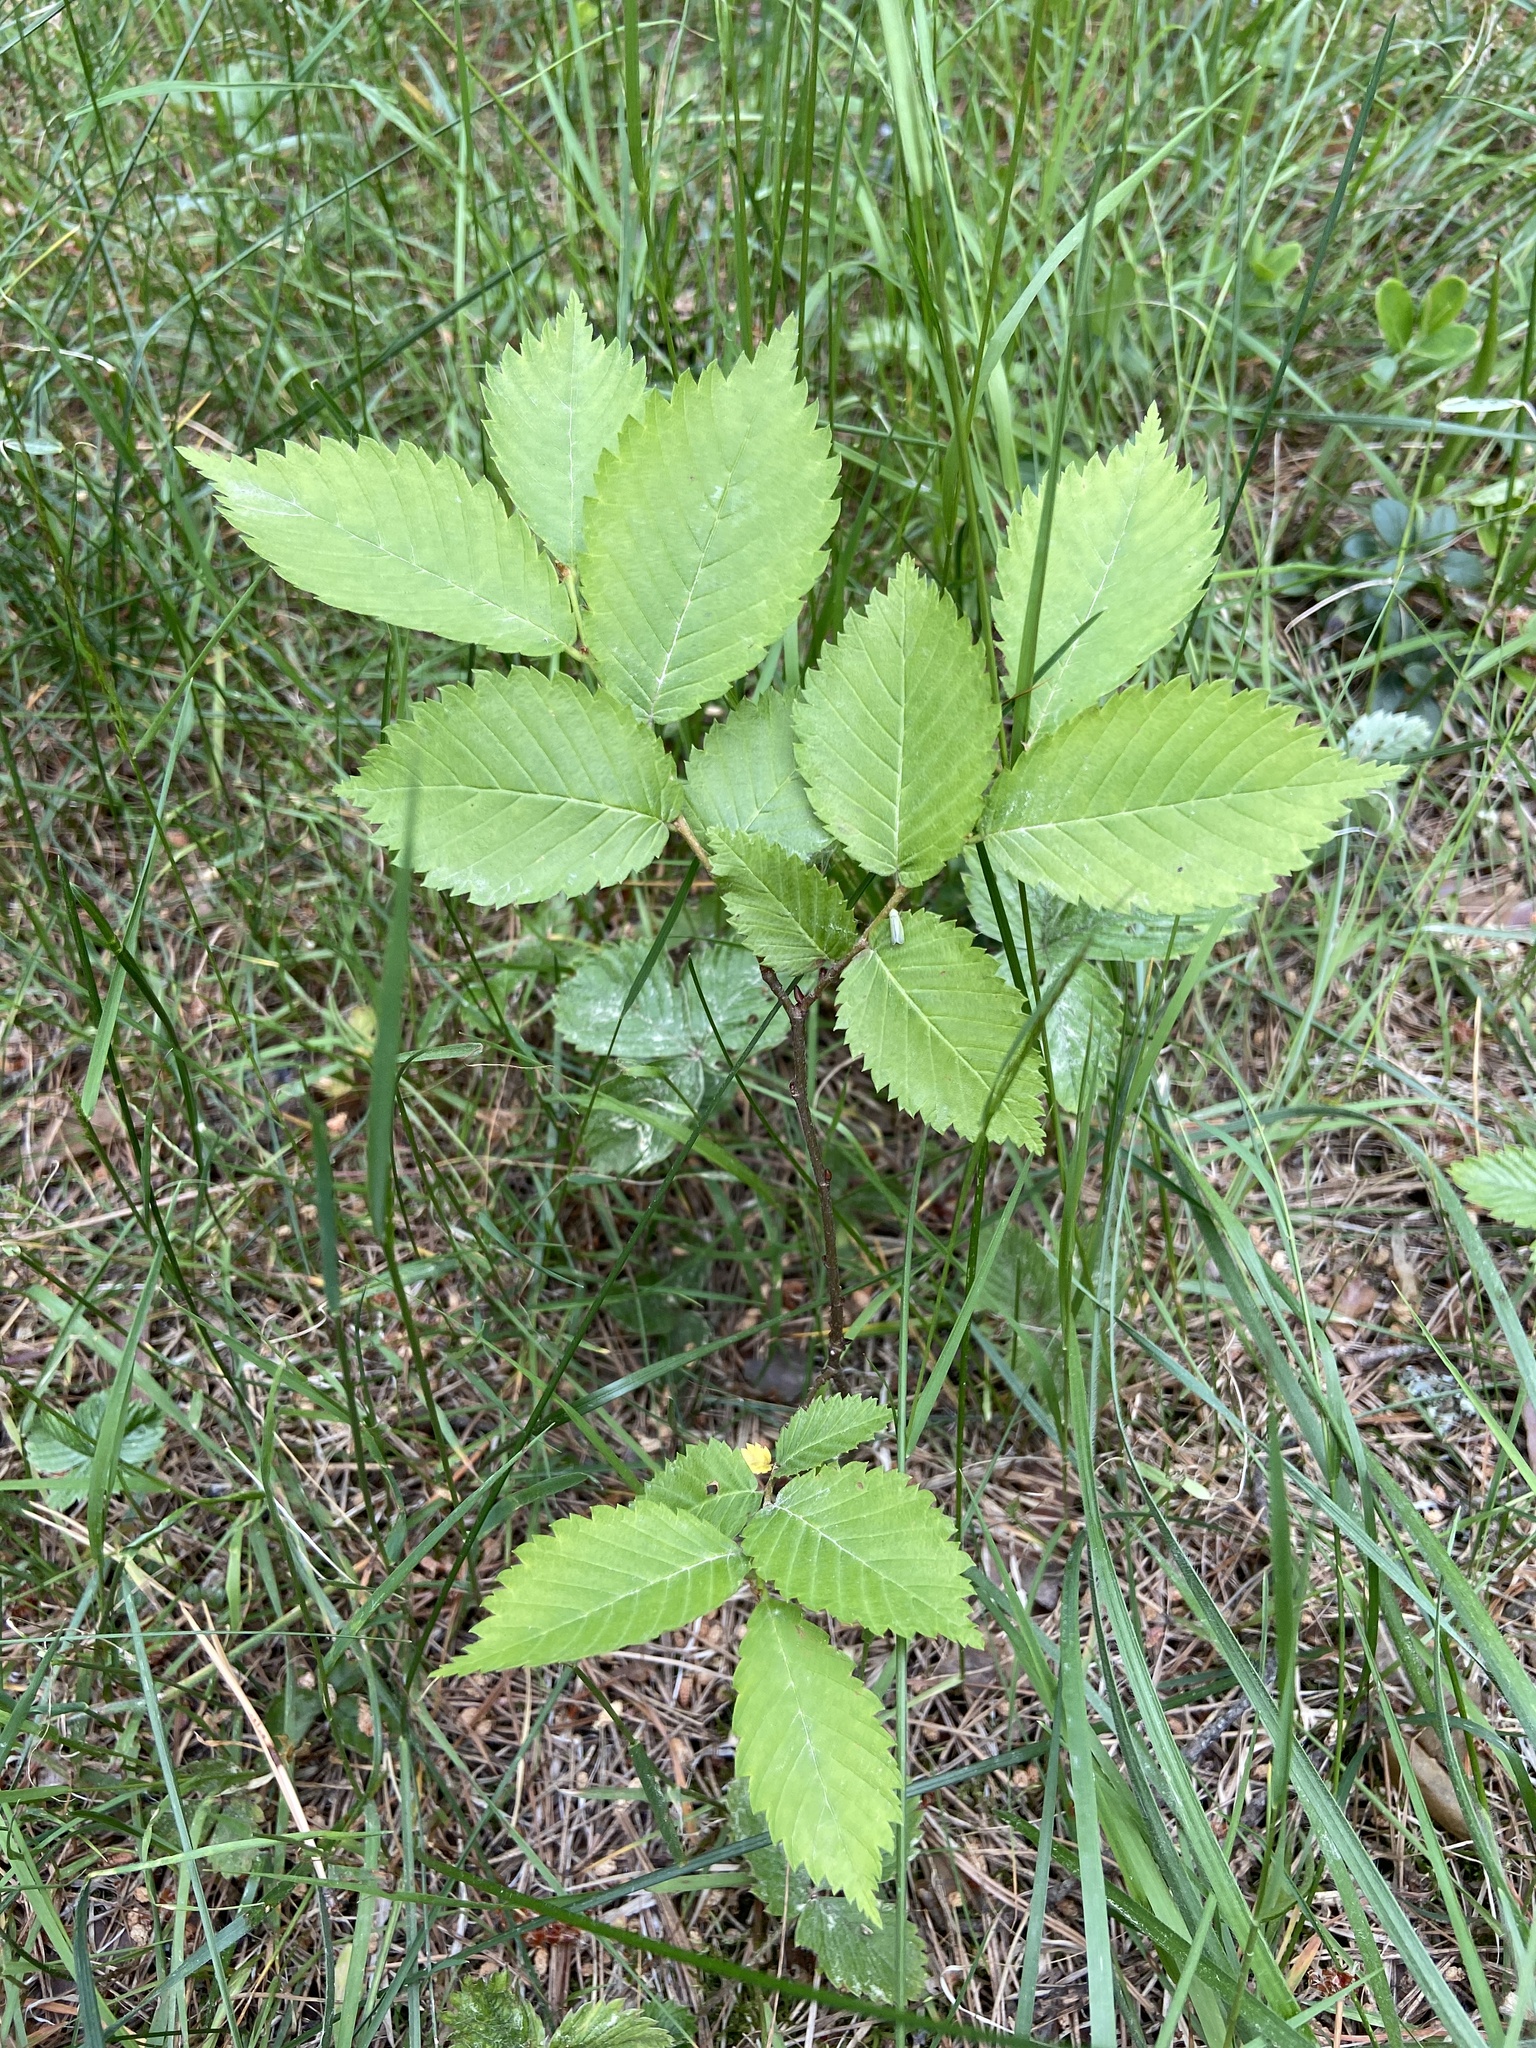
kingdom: Plantae
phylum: Tracheophyta
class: Magnoliopsida
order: Rosales
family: Ulmaceae
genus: Ulmus
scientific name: Ulmus laevis
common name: European white-elm
